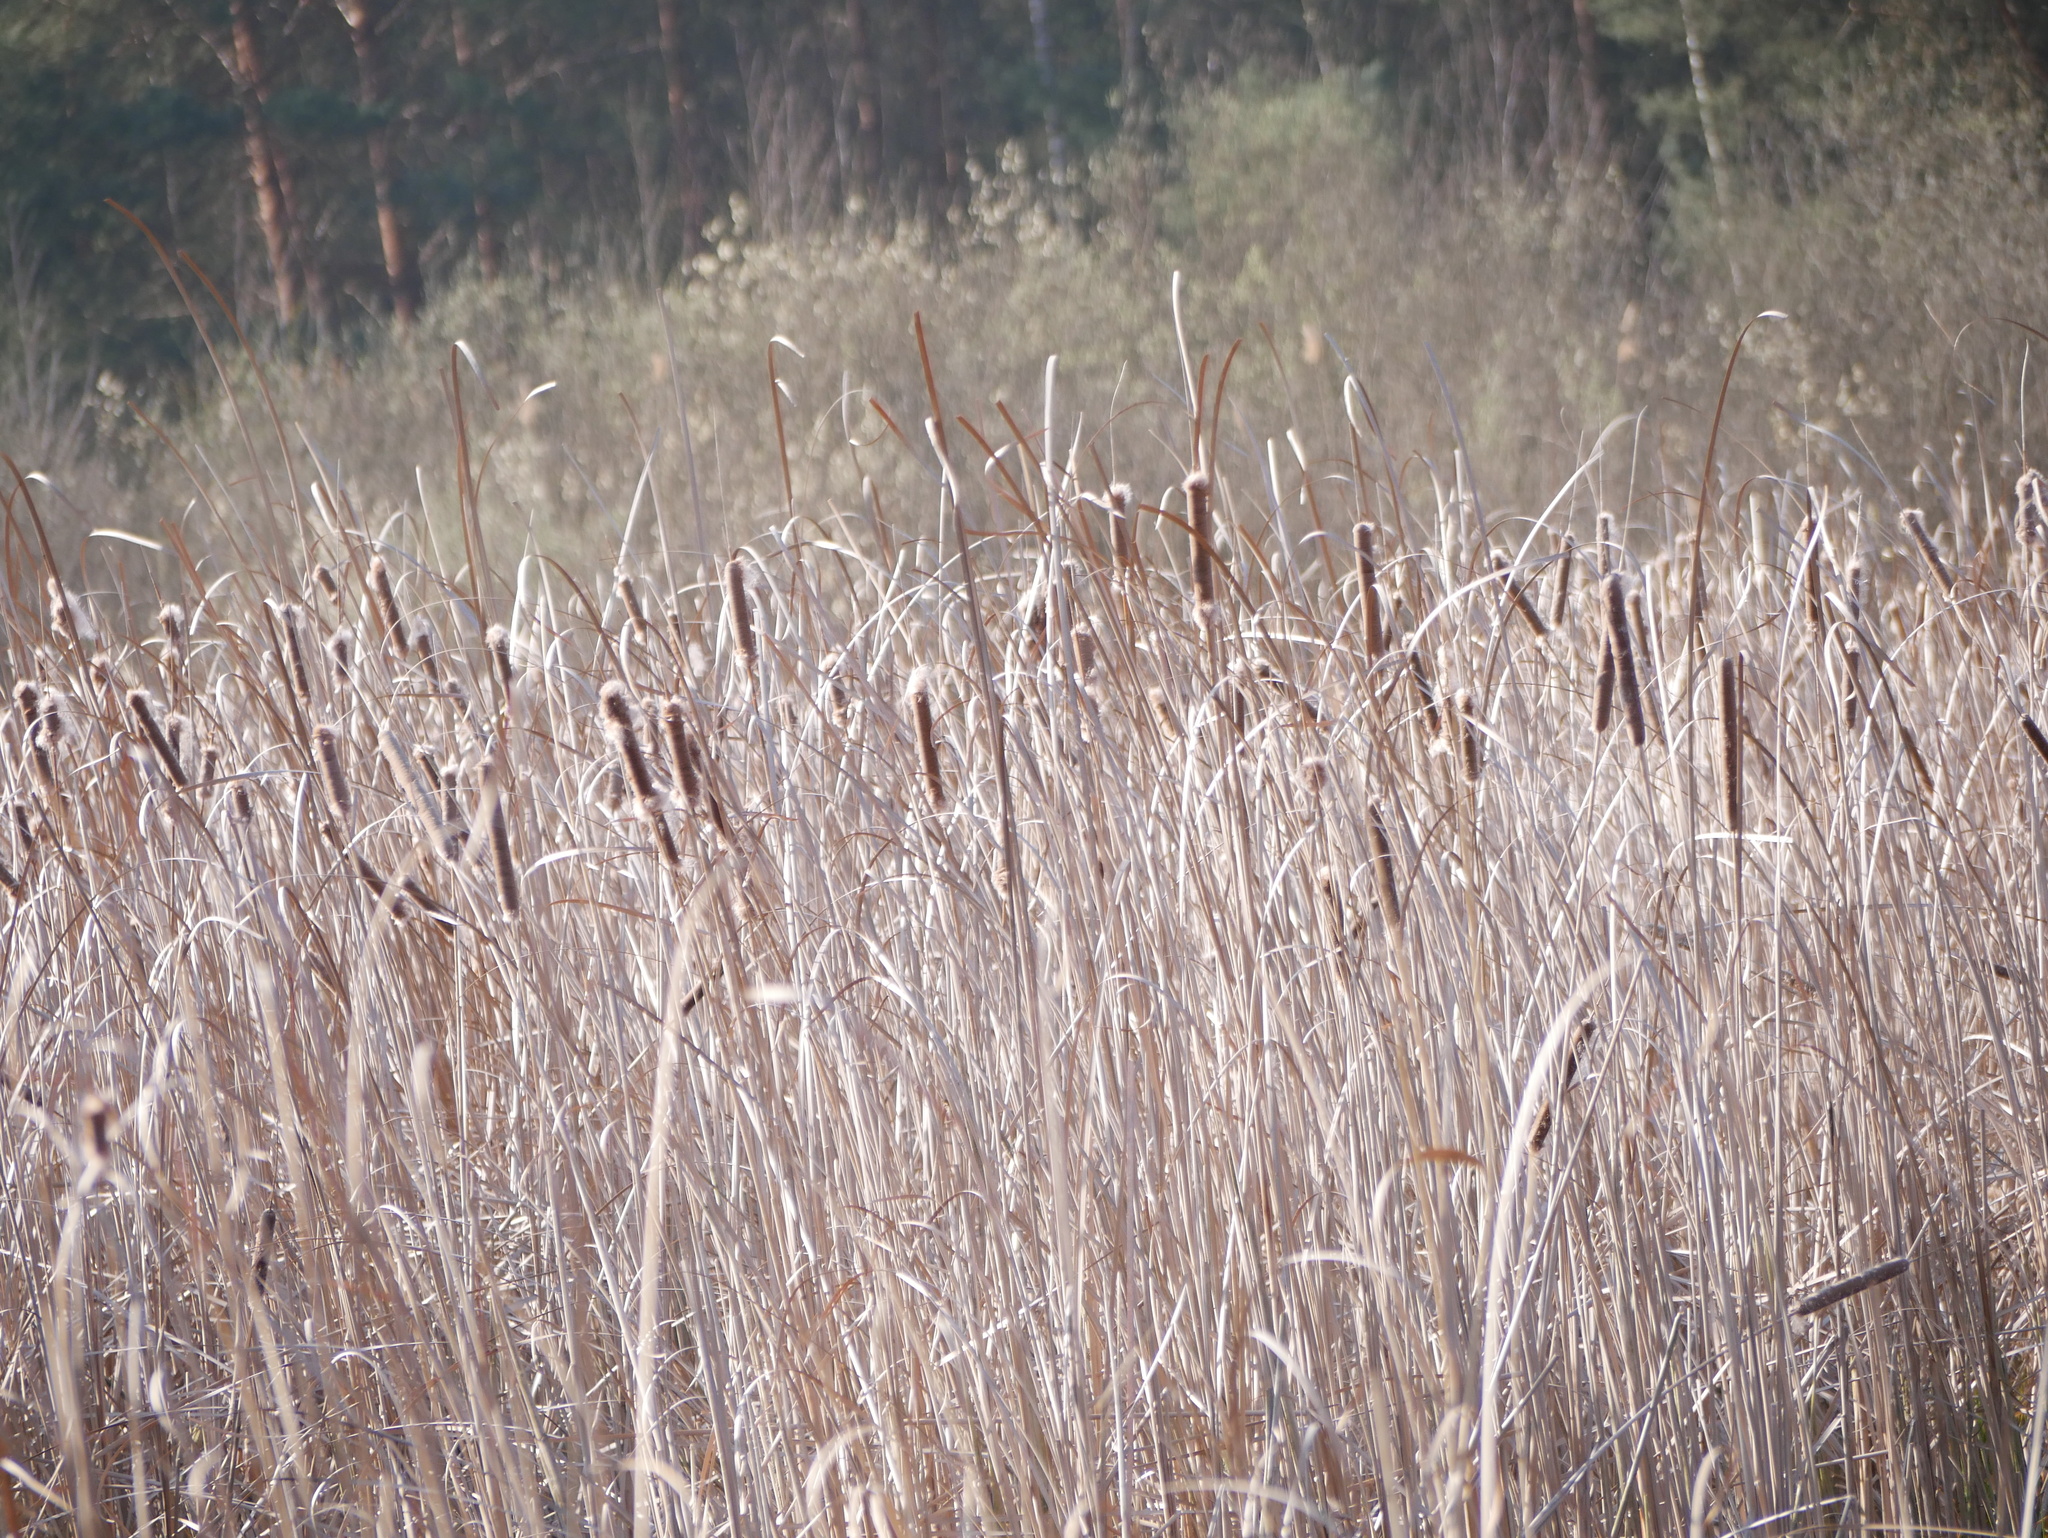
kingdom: Plantae
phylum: Tracheophyta
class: Liliopsida
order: Poales
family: Typhaceae
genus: Typha
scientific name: Typha latifolia
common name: Broadleaf cattail
